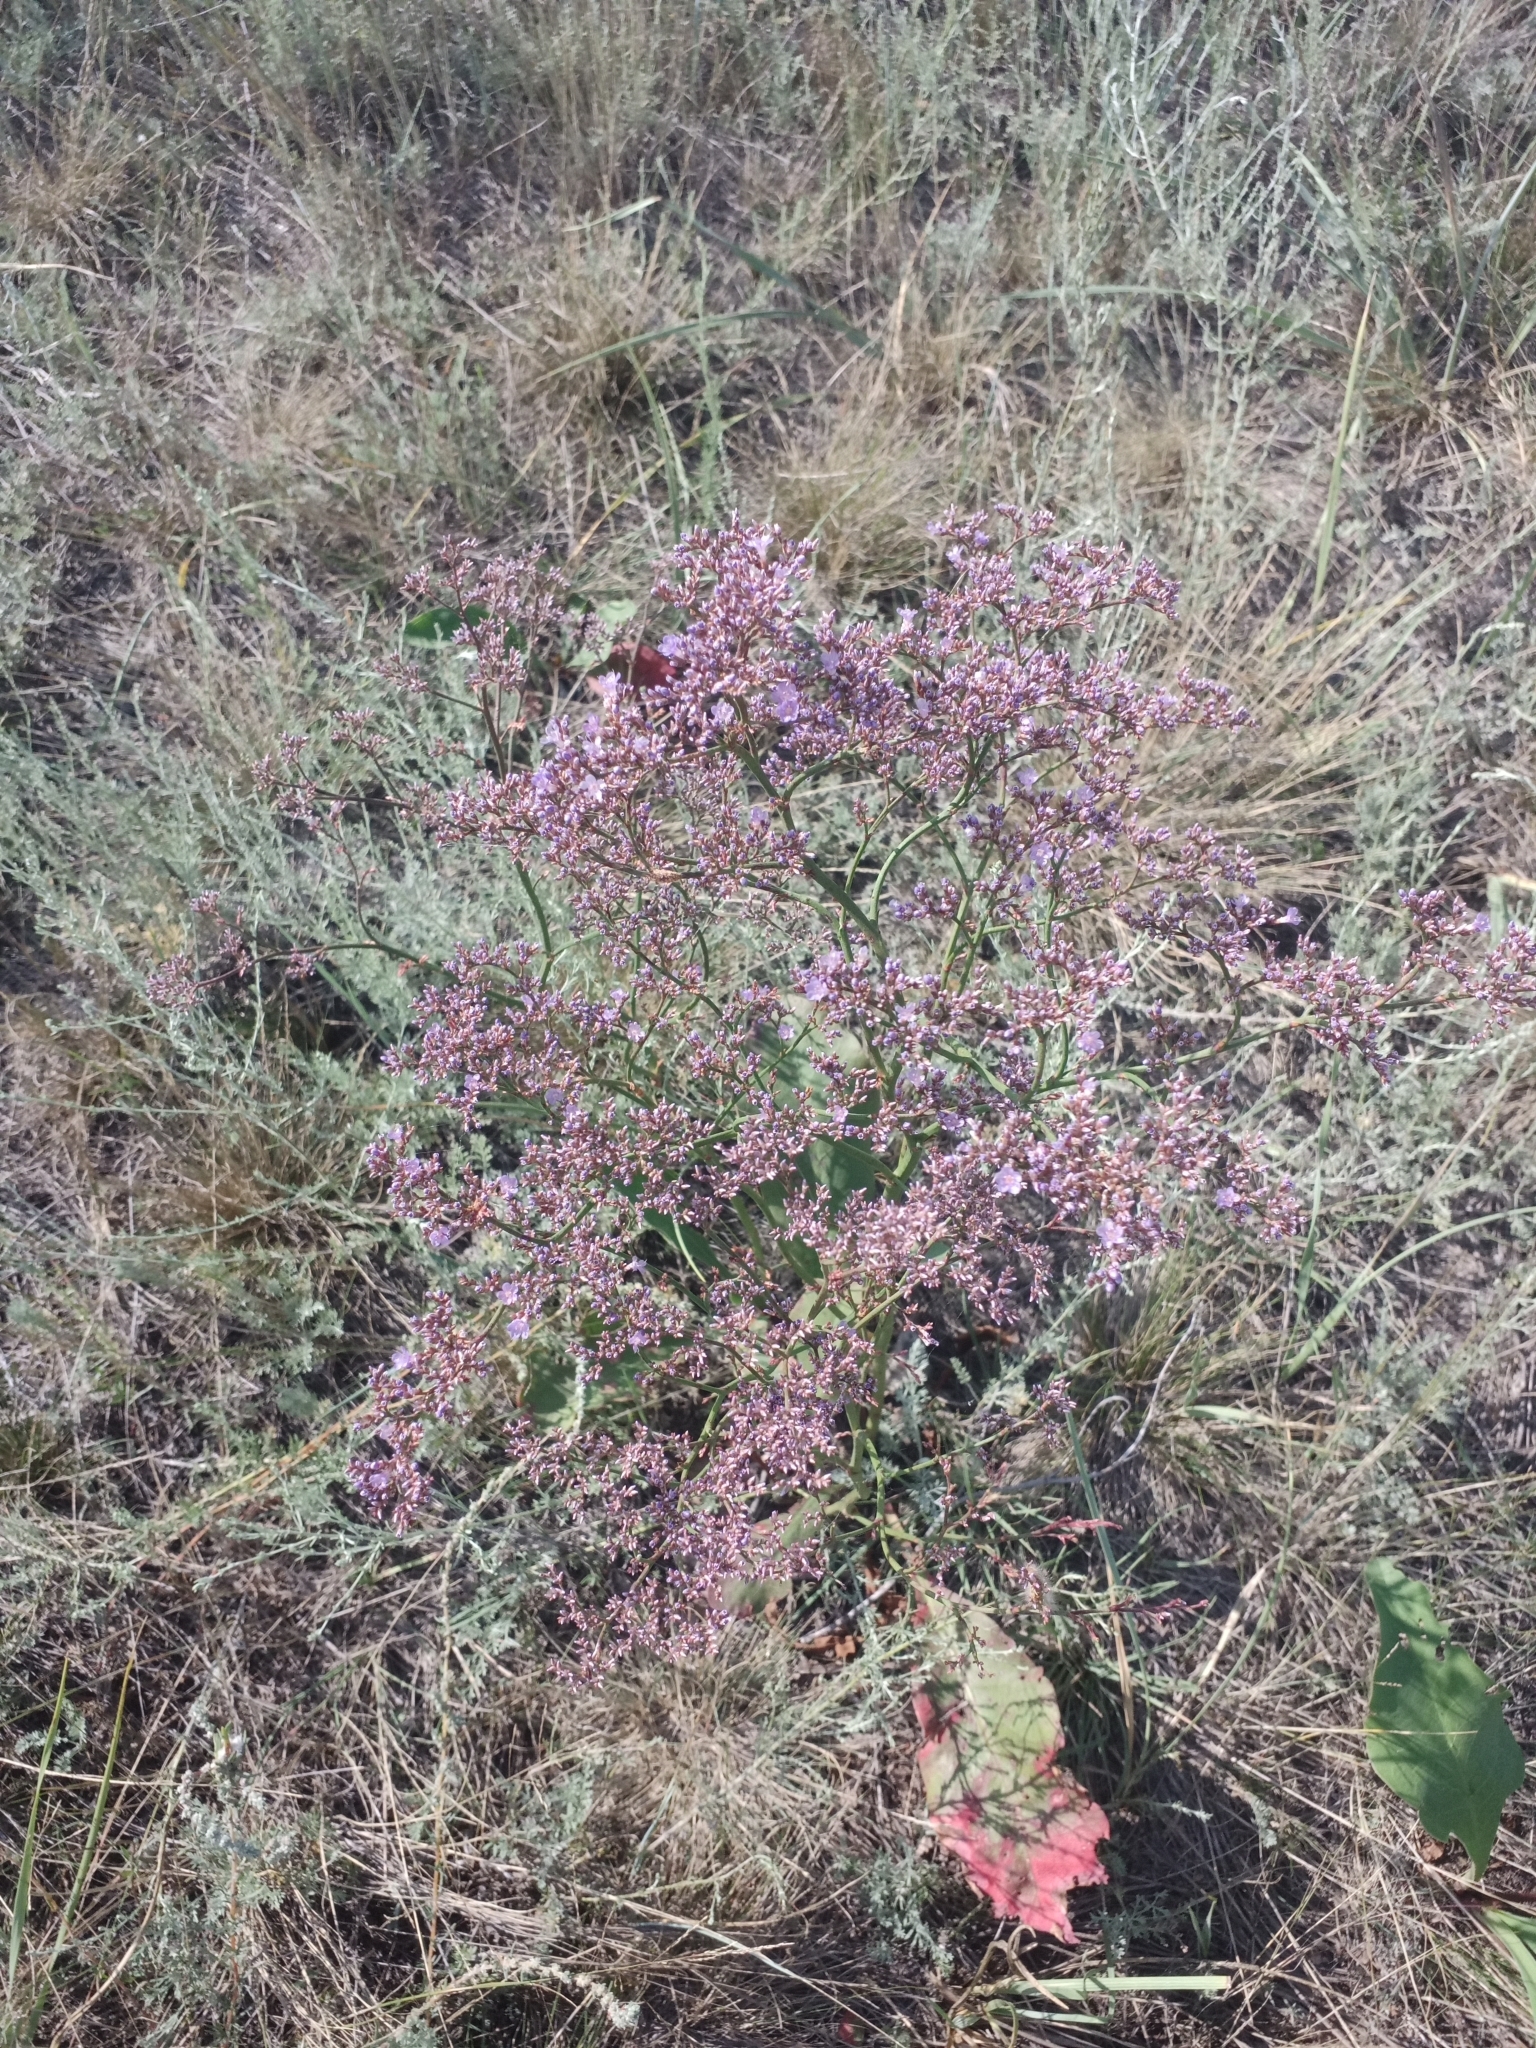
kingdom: Plantae
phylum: Tracheophyta
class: Magnoliopsida
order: Caryophyllales
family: Plumbaginaceae
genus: Limonium
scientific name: Limonium gmelini
